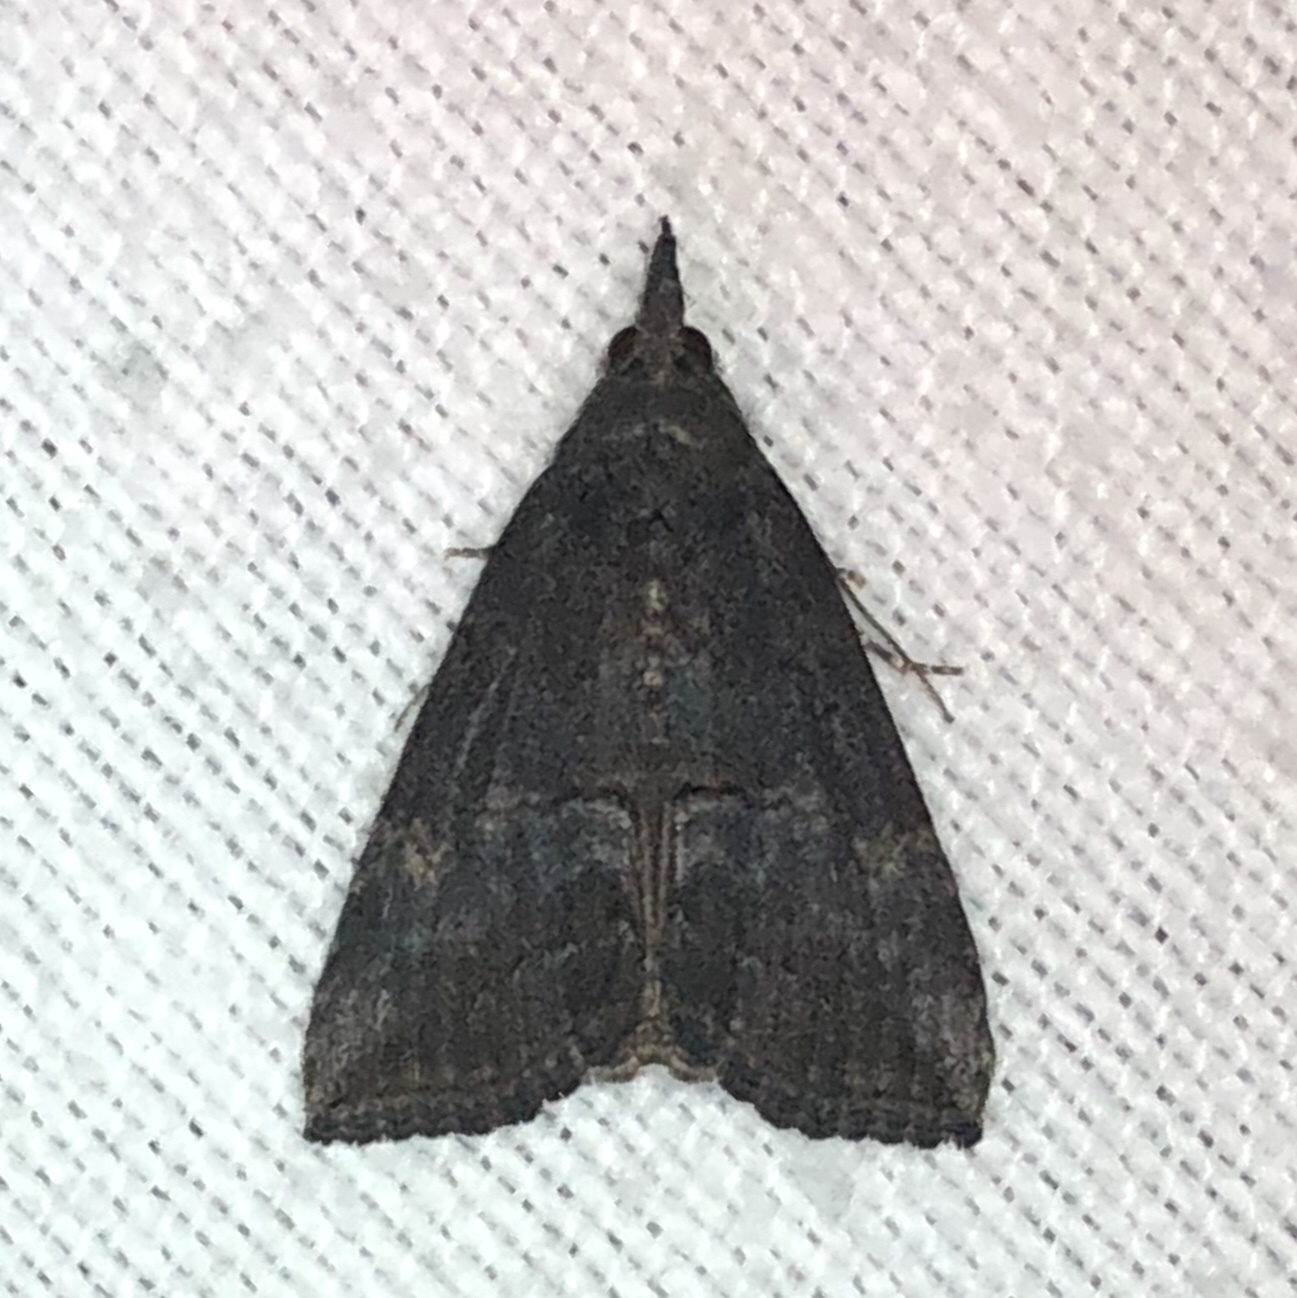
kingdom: Animalia
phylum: Arthropoda
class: Insecta
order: Lepidoptera
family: Erebidae
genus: Hypena
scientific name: Hypena scabra
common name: Green cloverworm
